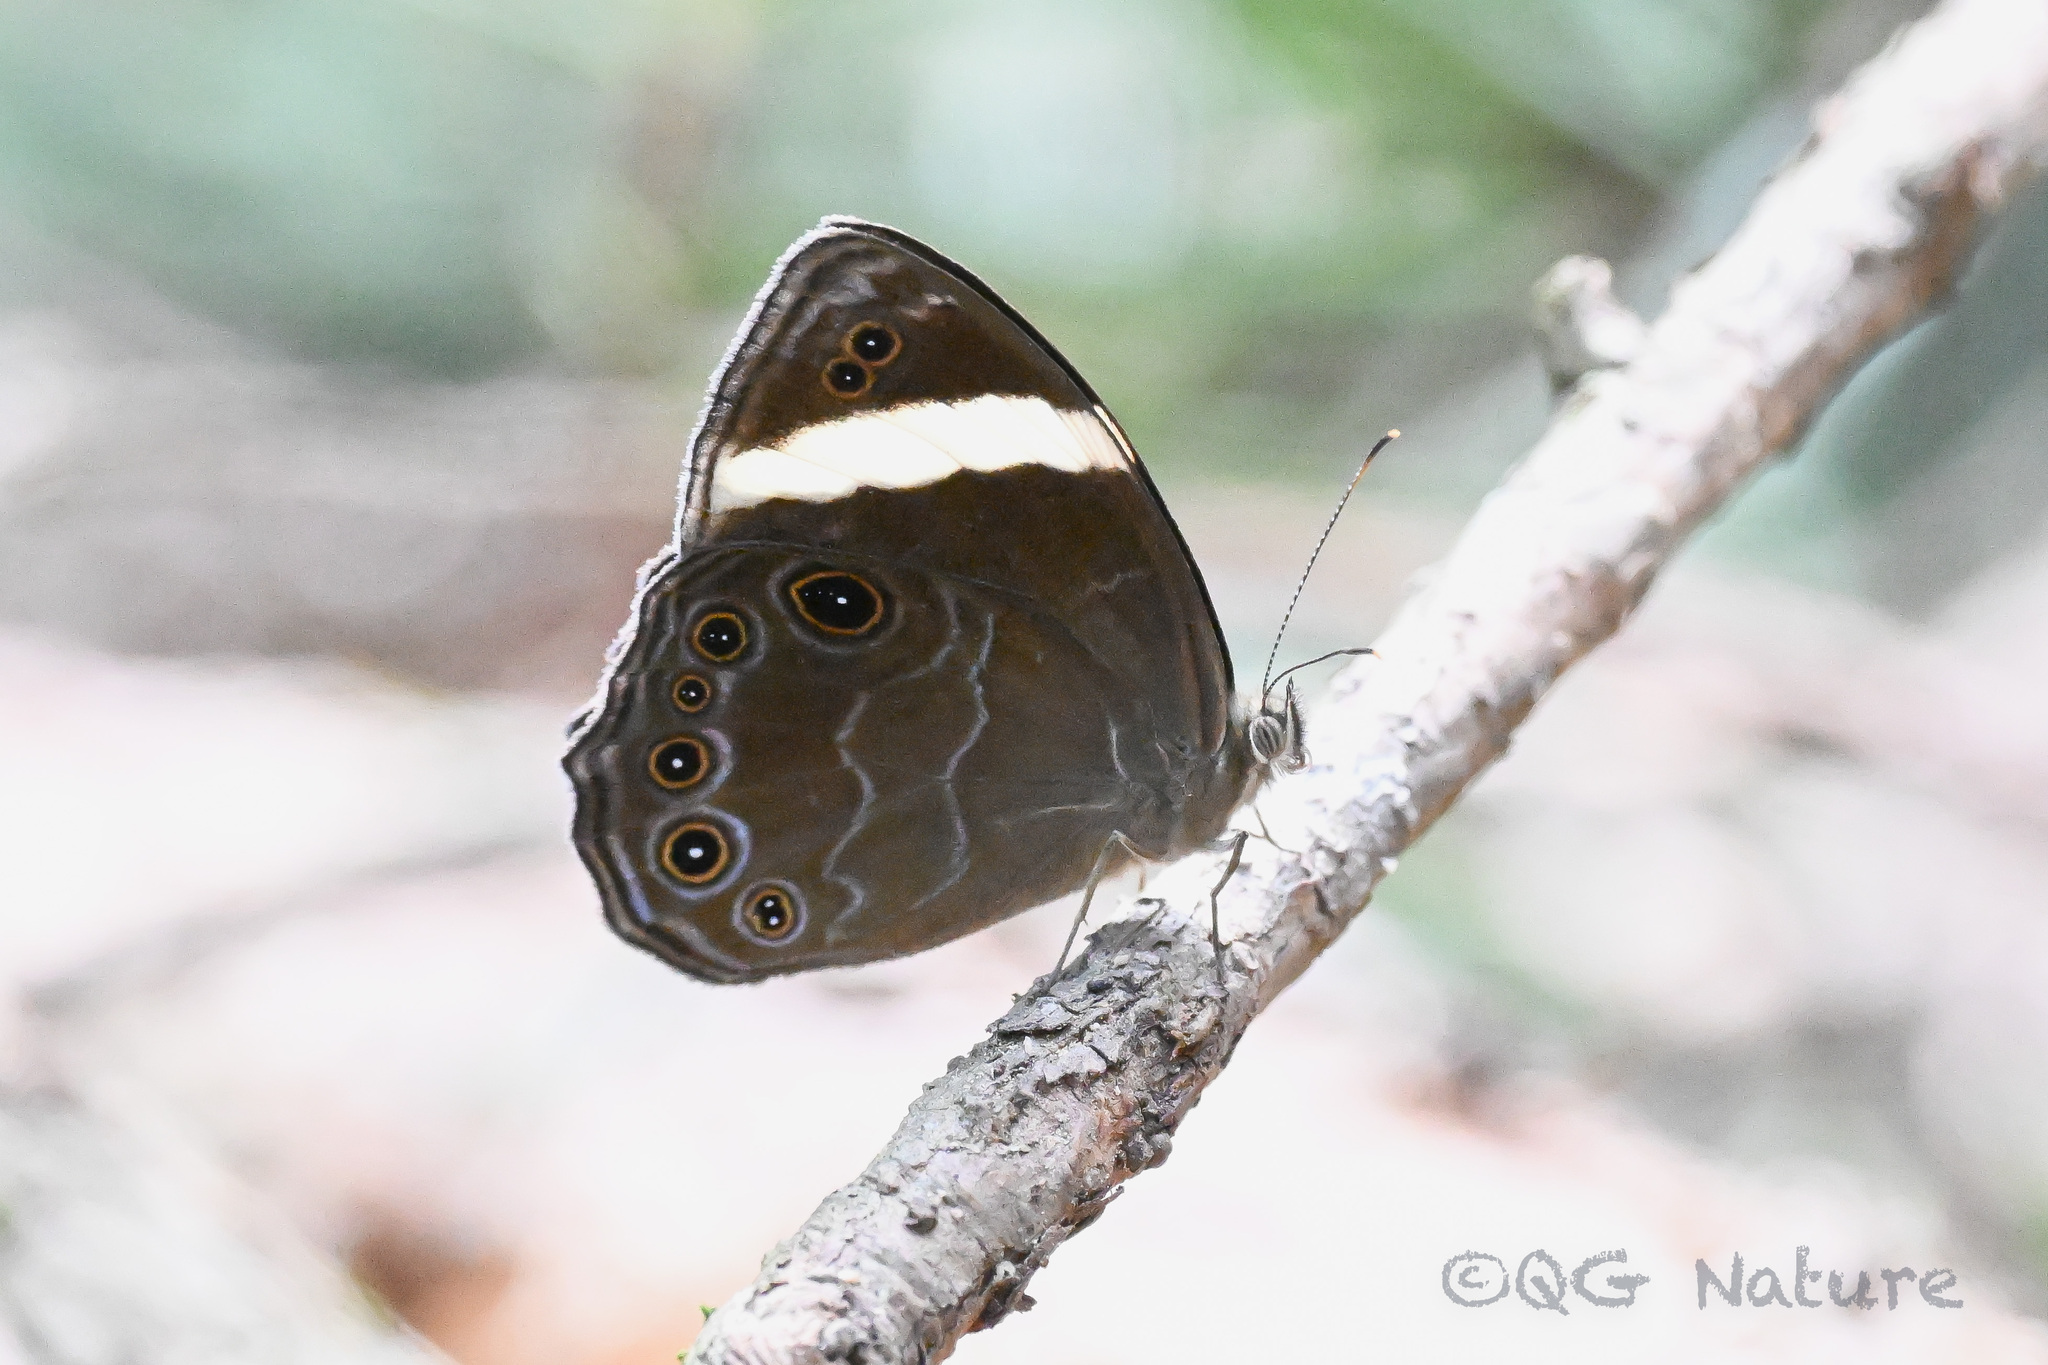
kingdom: Animalia
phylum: Arthropoda
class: Insecta
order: Lepidoptera
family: Nymphalidae
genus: Lethe
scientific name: Lethe verma
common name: Straight-banded treebrown
